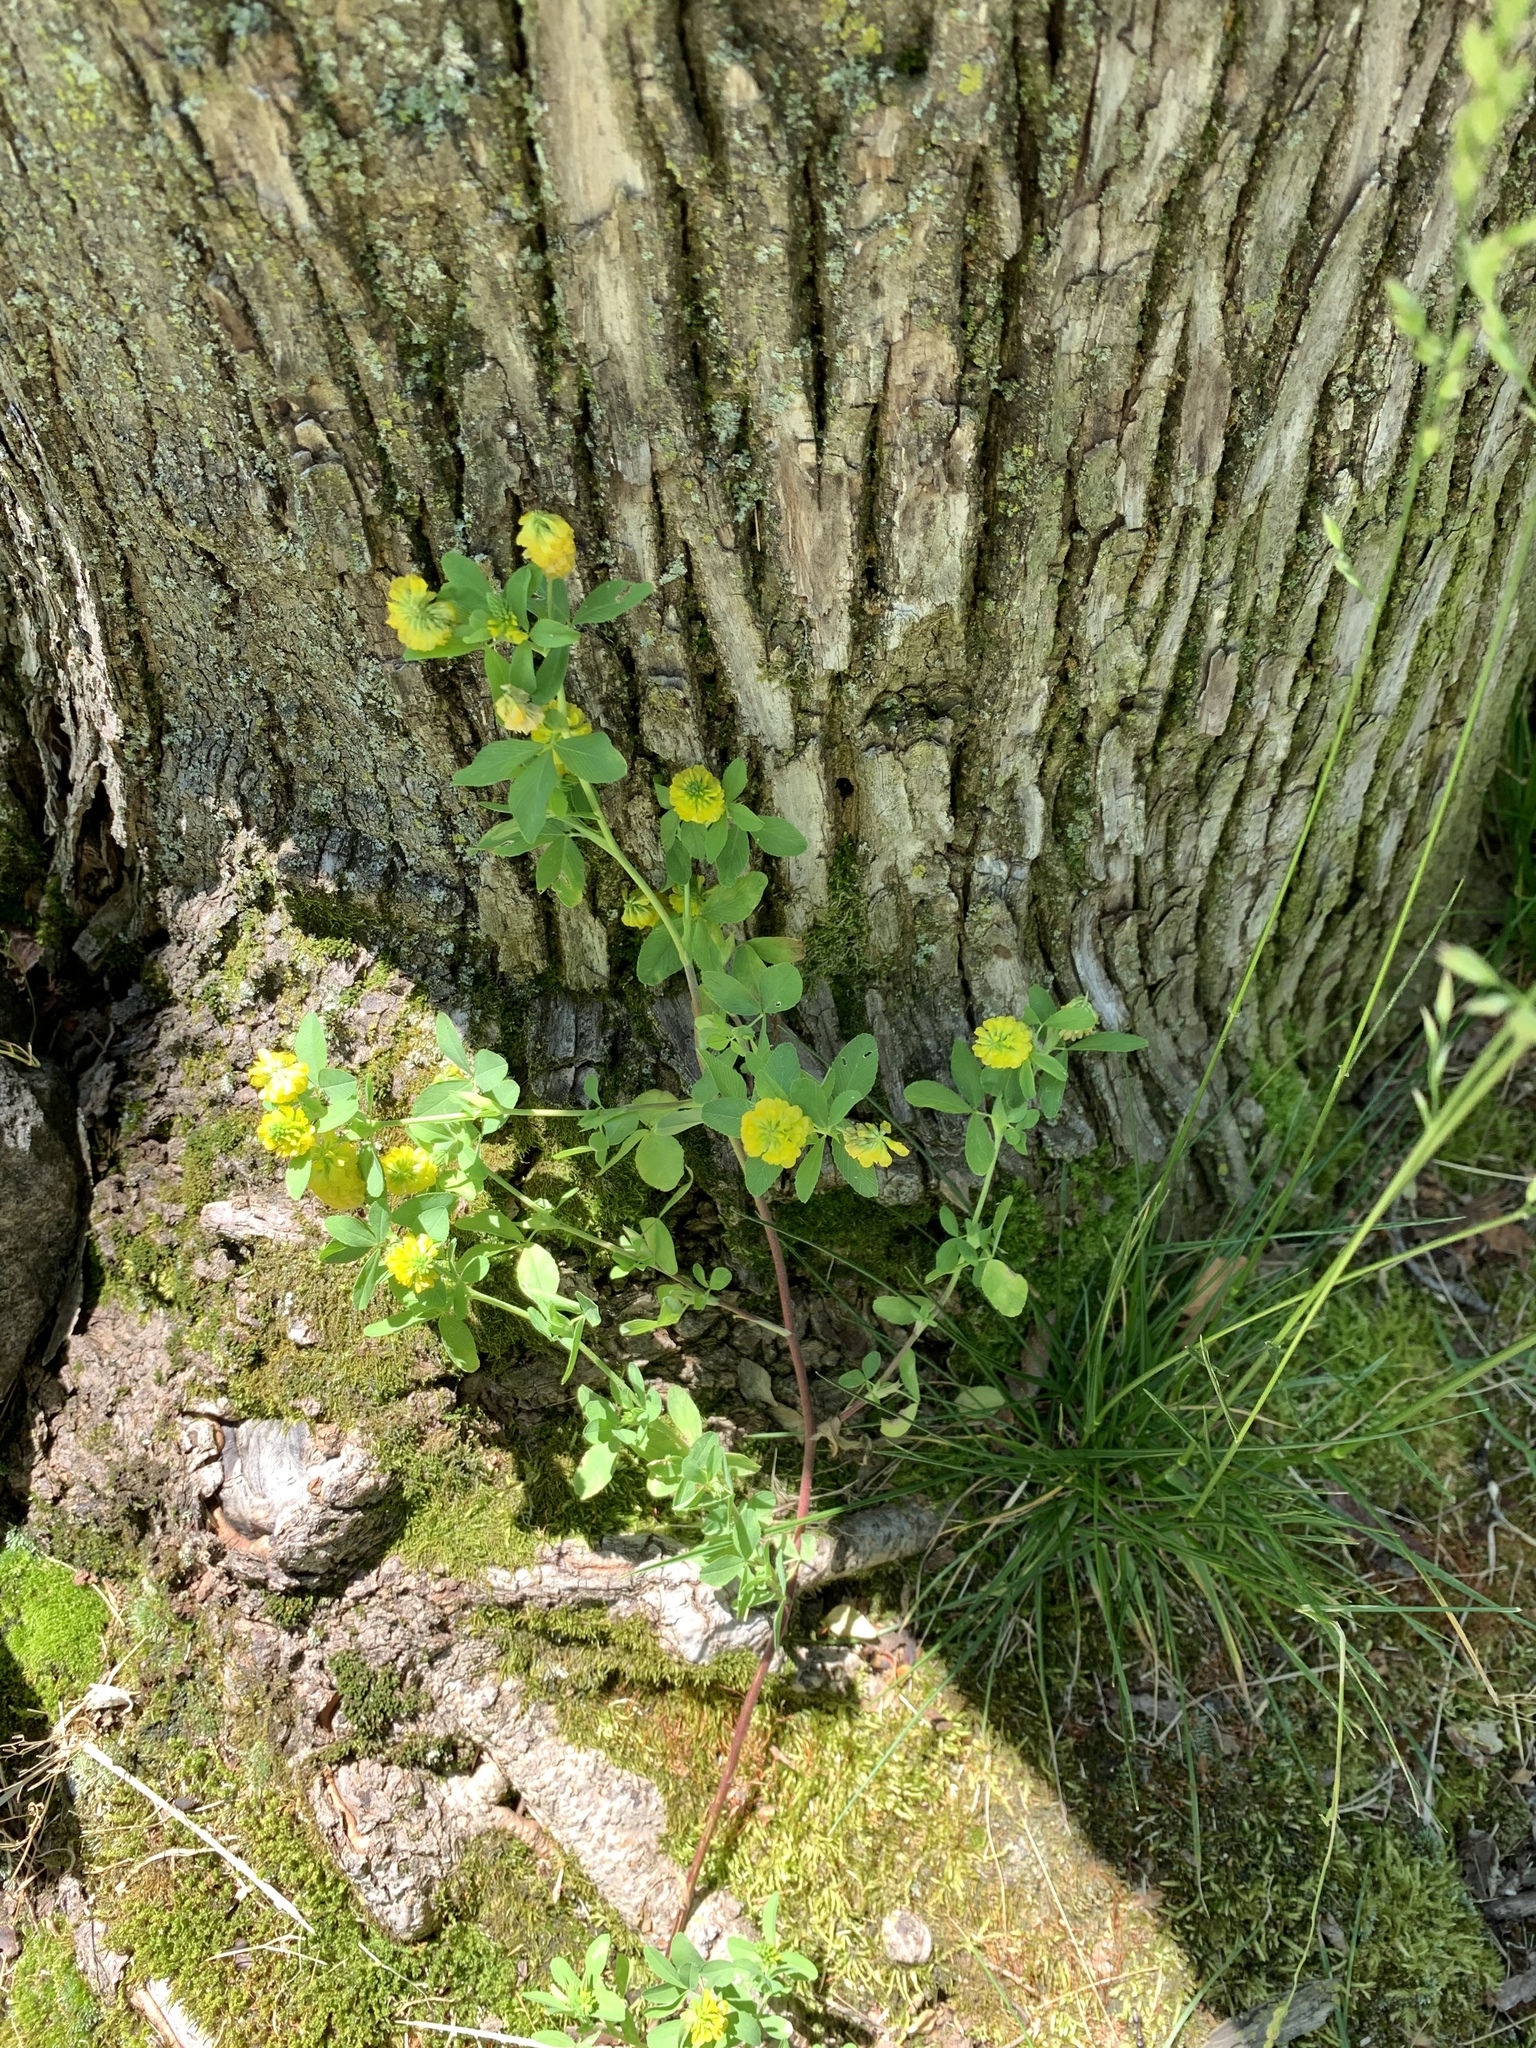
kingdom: Plantae
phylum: Tracheophyta
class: Magnoliopsida
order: Fabales
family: Fabaceae
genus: Trifolium
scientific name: Trifolium aureum
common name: Golden clover
